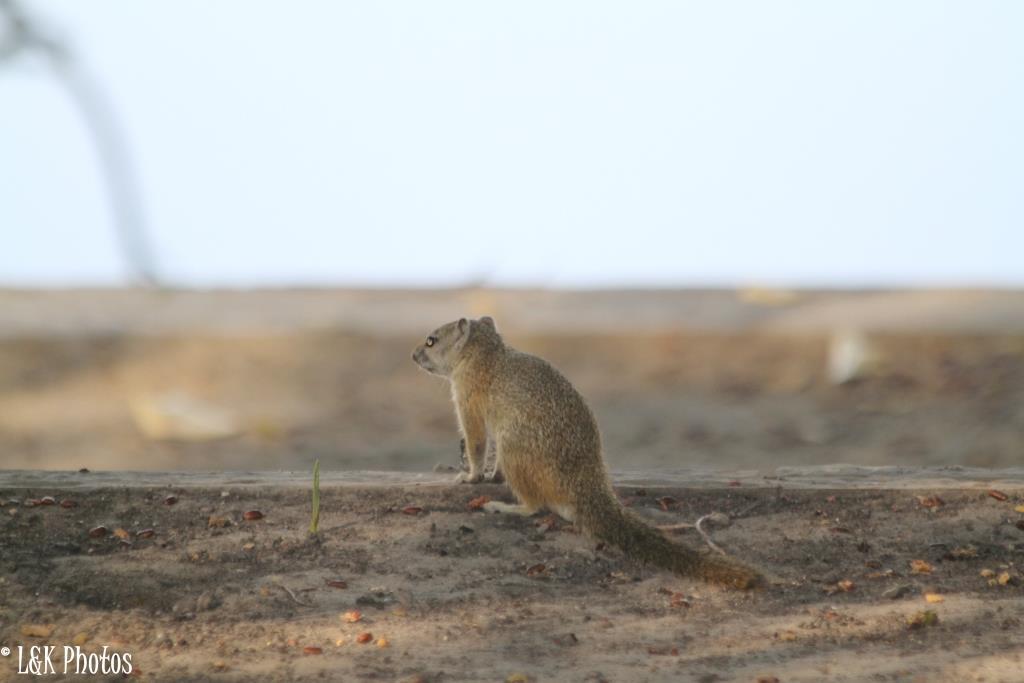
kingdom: Animalia
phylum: Chordata
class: Mammalia
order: Rodentia
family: Sciuridae
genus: Paraxerus
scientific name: Paraxerus cepapi
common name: Smith's bush squirrel
